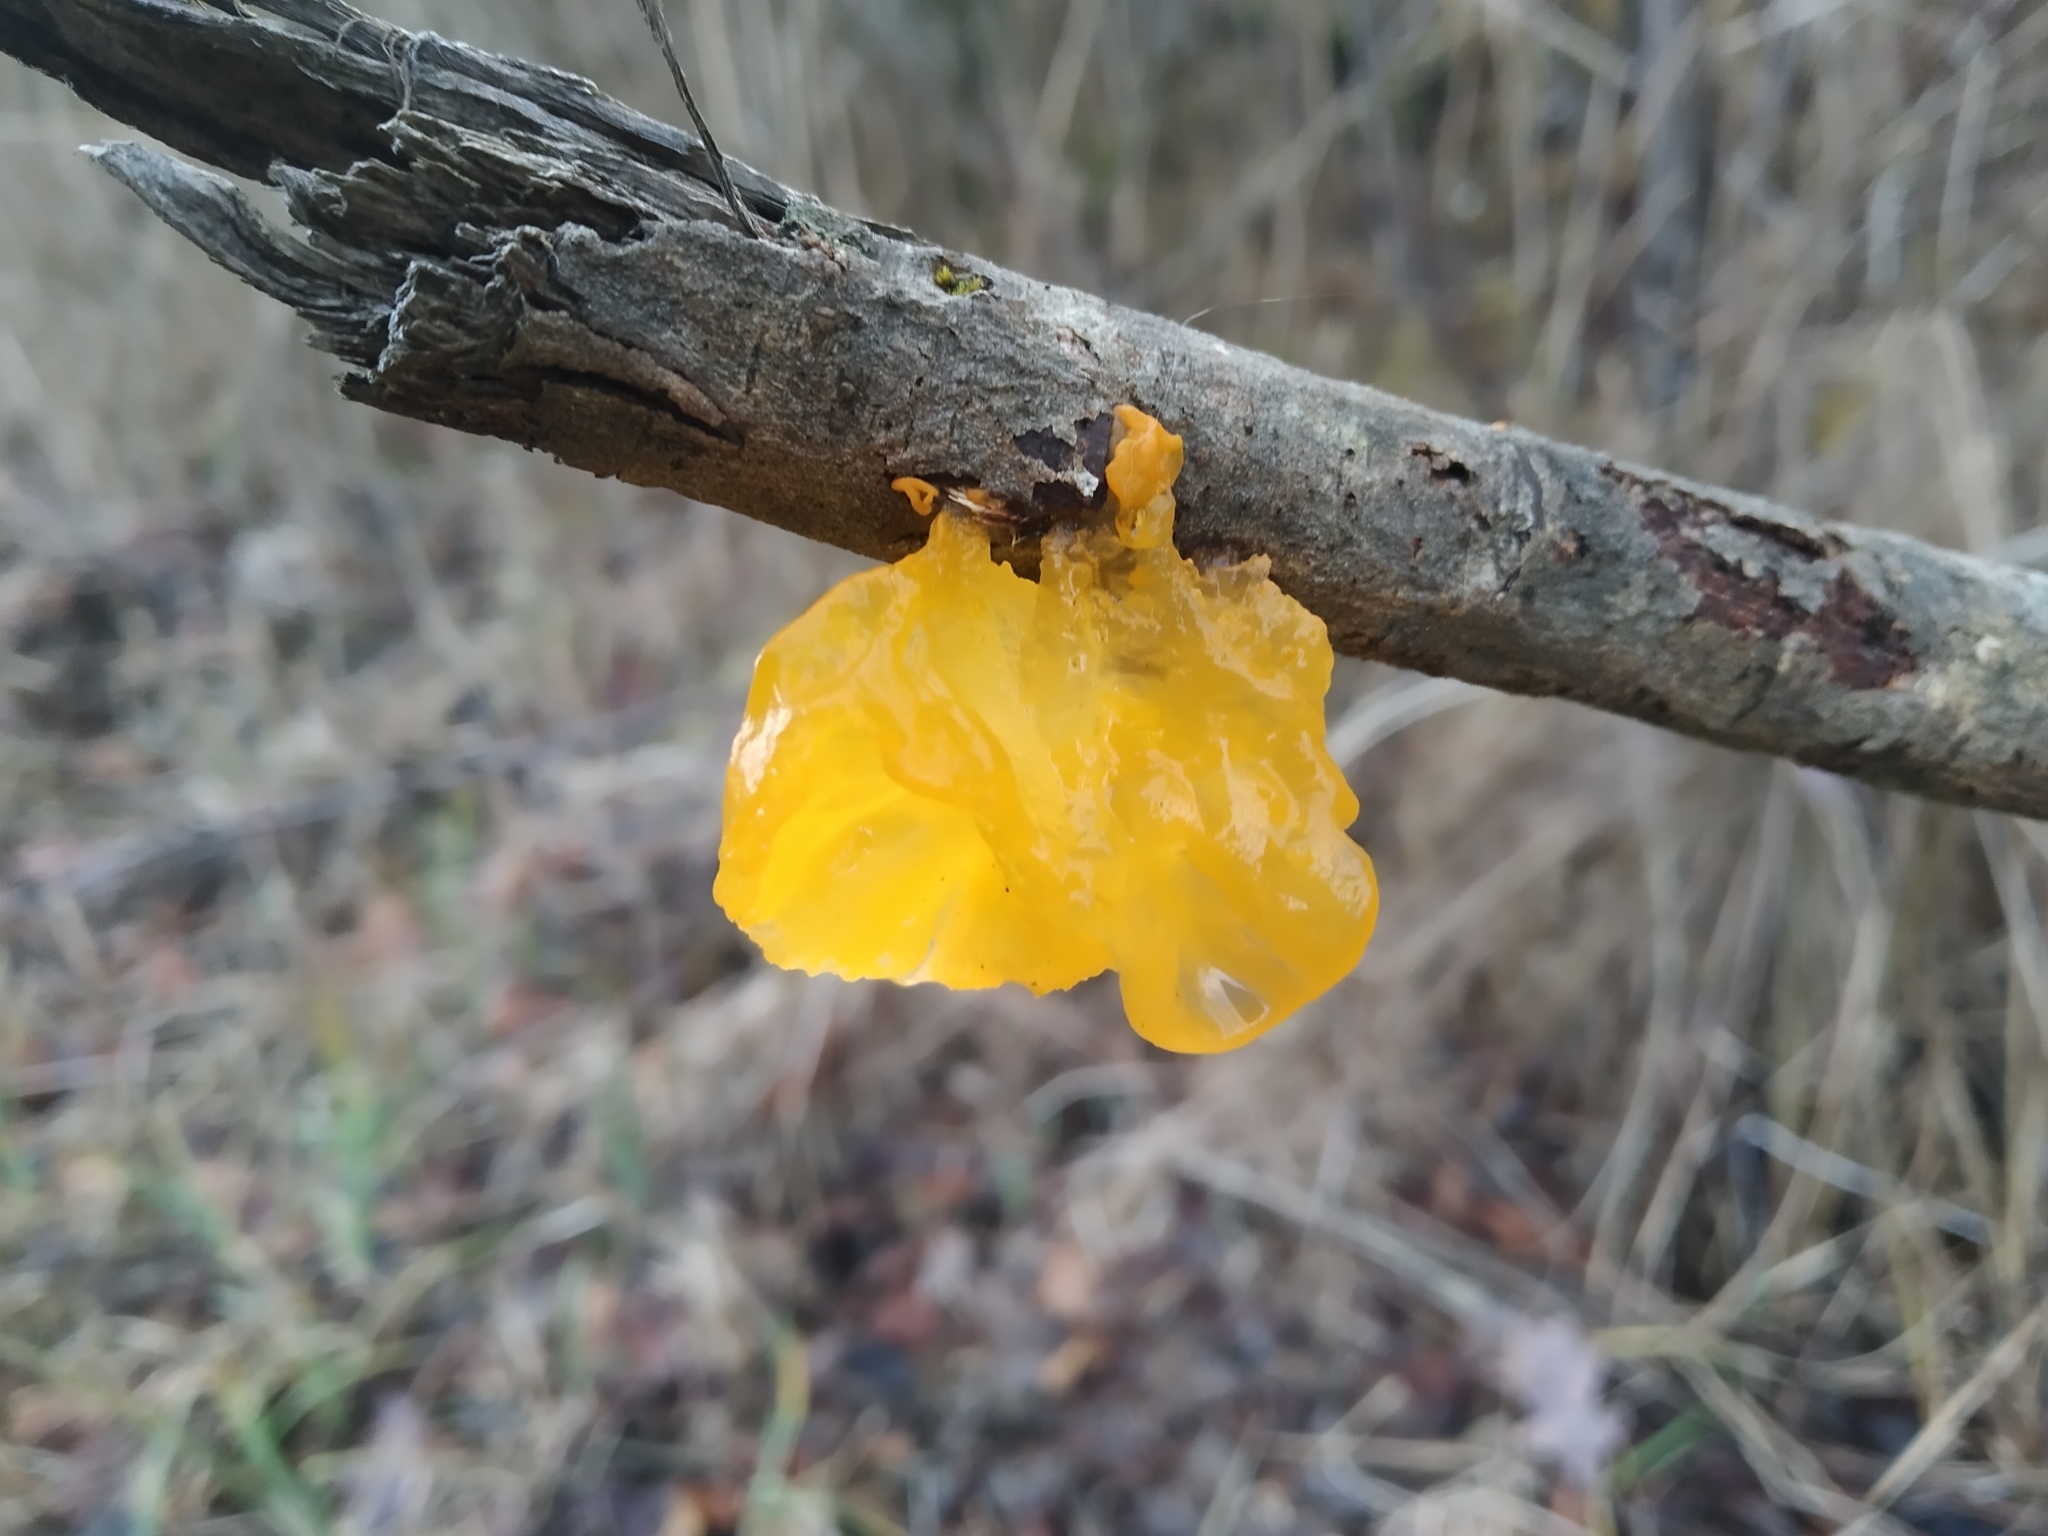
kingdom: Fungi
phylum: Basidiomycota
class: Tremellomycetes
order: Tremellales
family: Tremellaceae
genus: Tremella
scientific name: Tremella mesenterica
